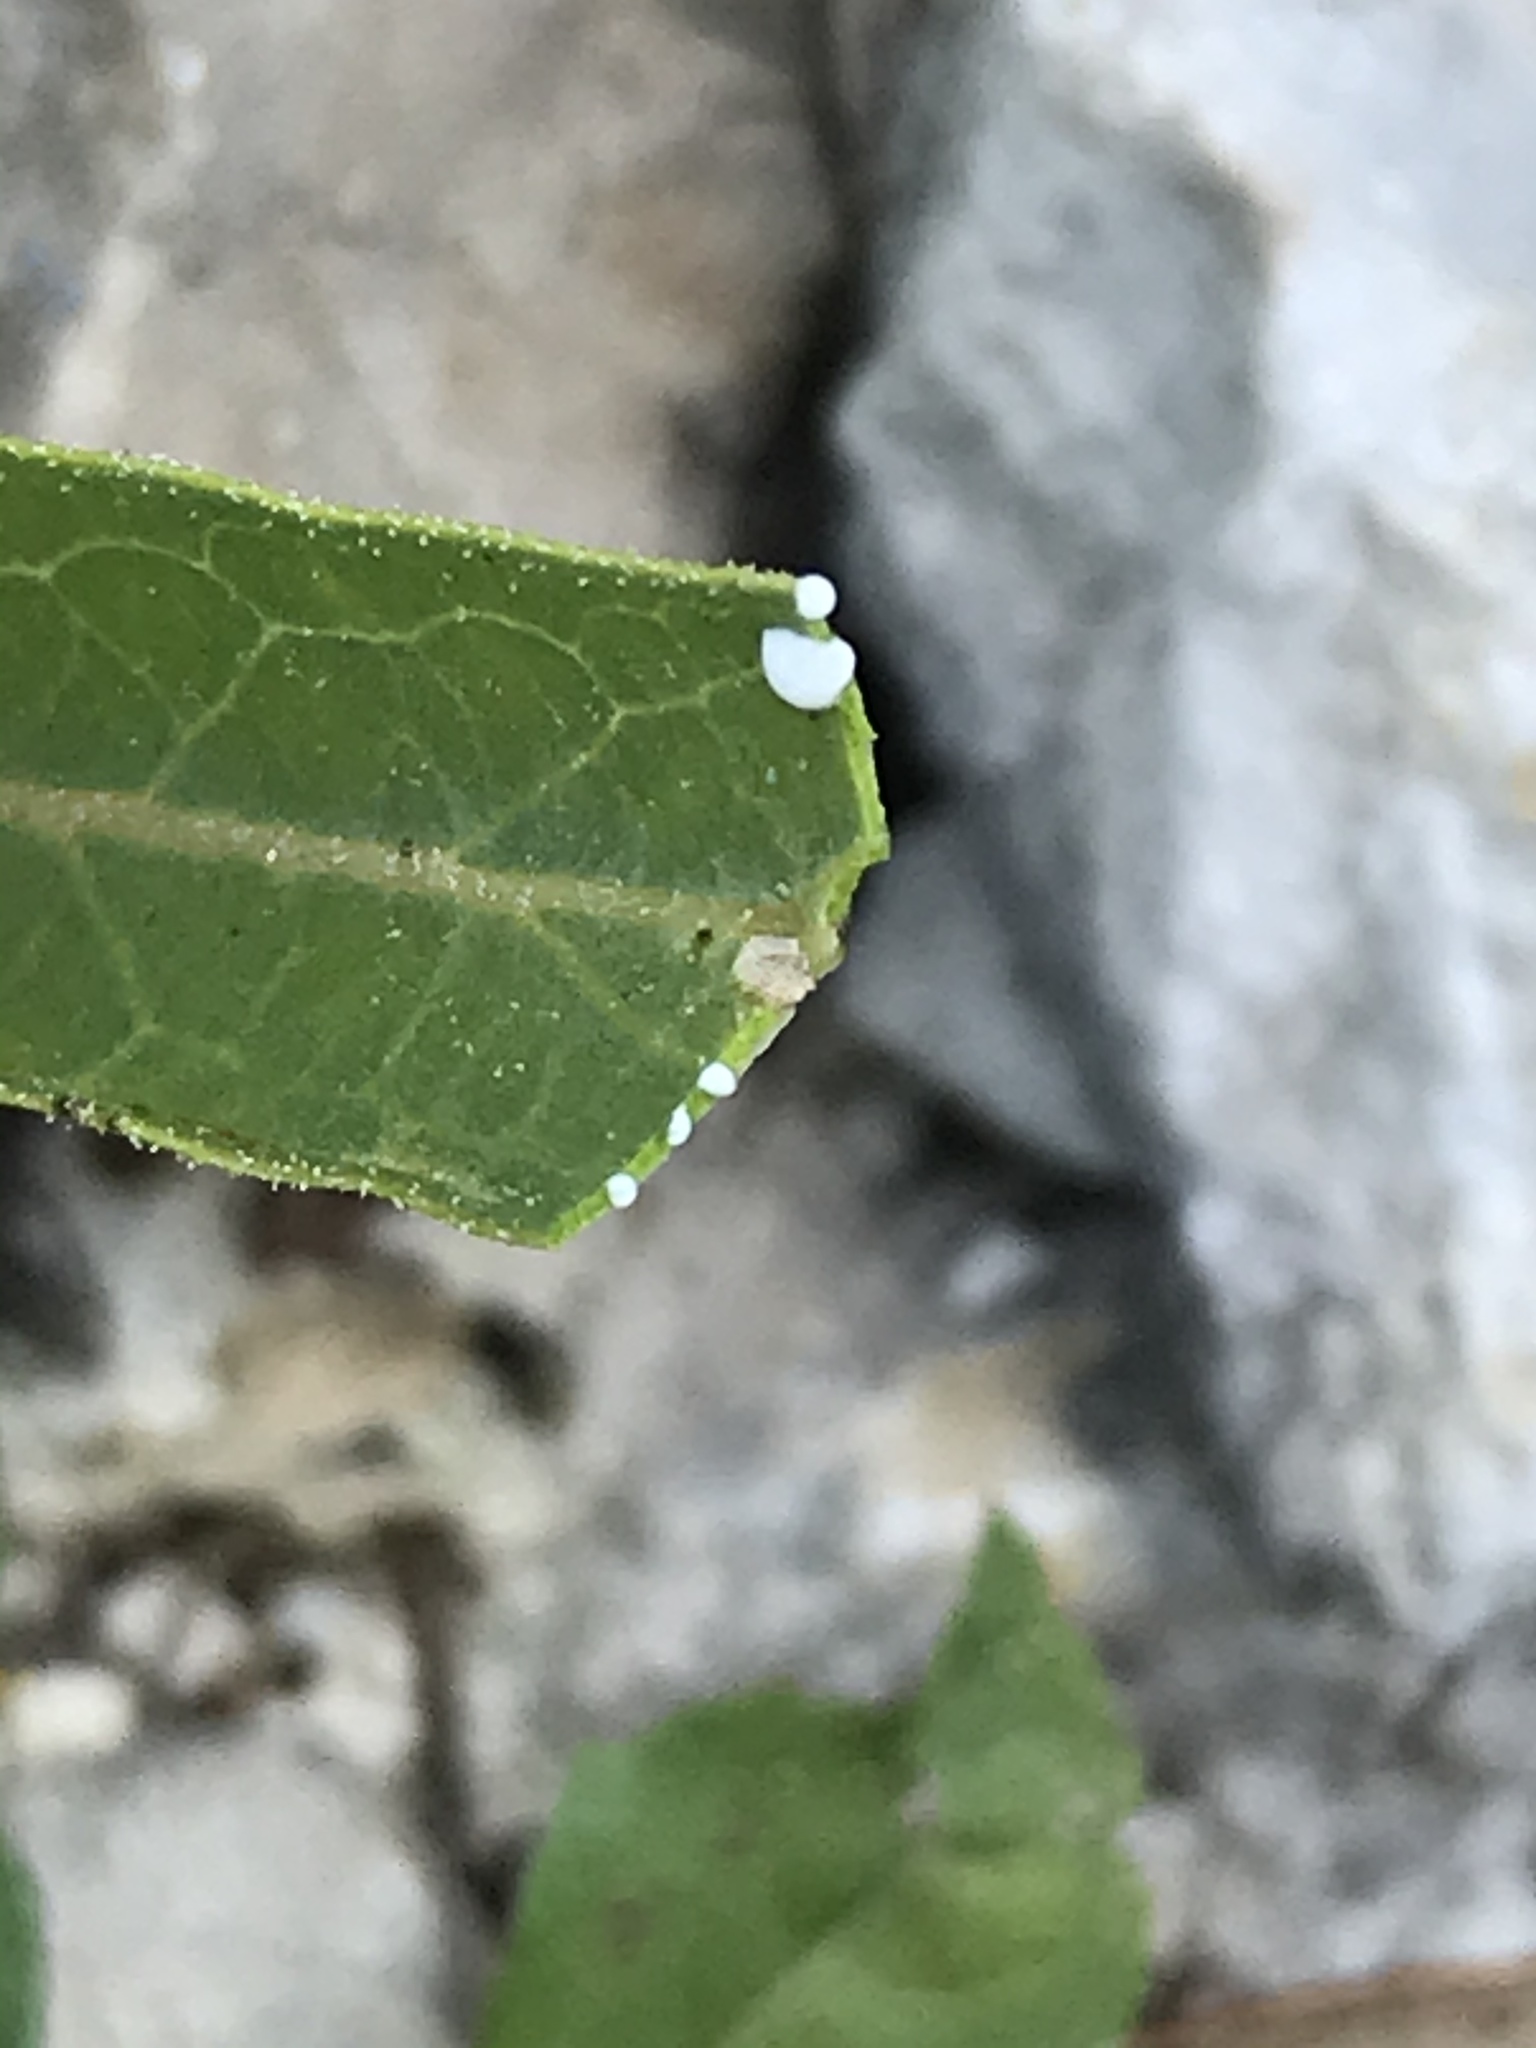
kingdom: Plantae
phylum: Tracheophyta
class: Magnoliopsida
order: Gentianales
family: Apocynaceae
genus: Asclepias
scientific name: Asclepias asperula
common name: Antelope horns
